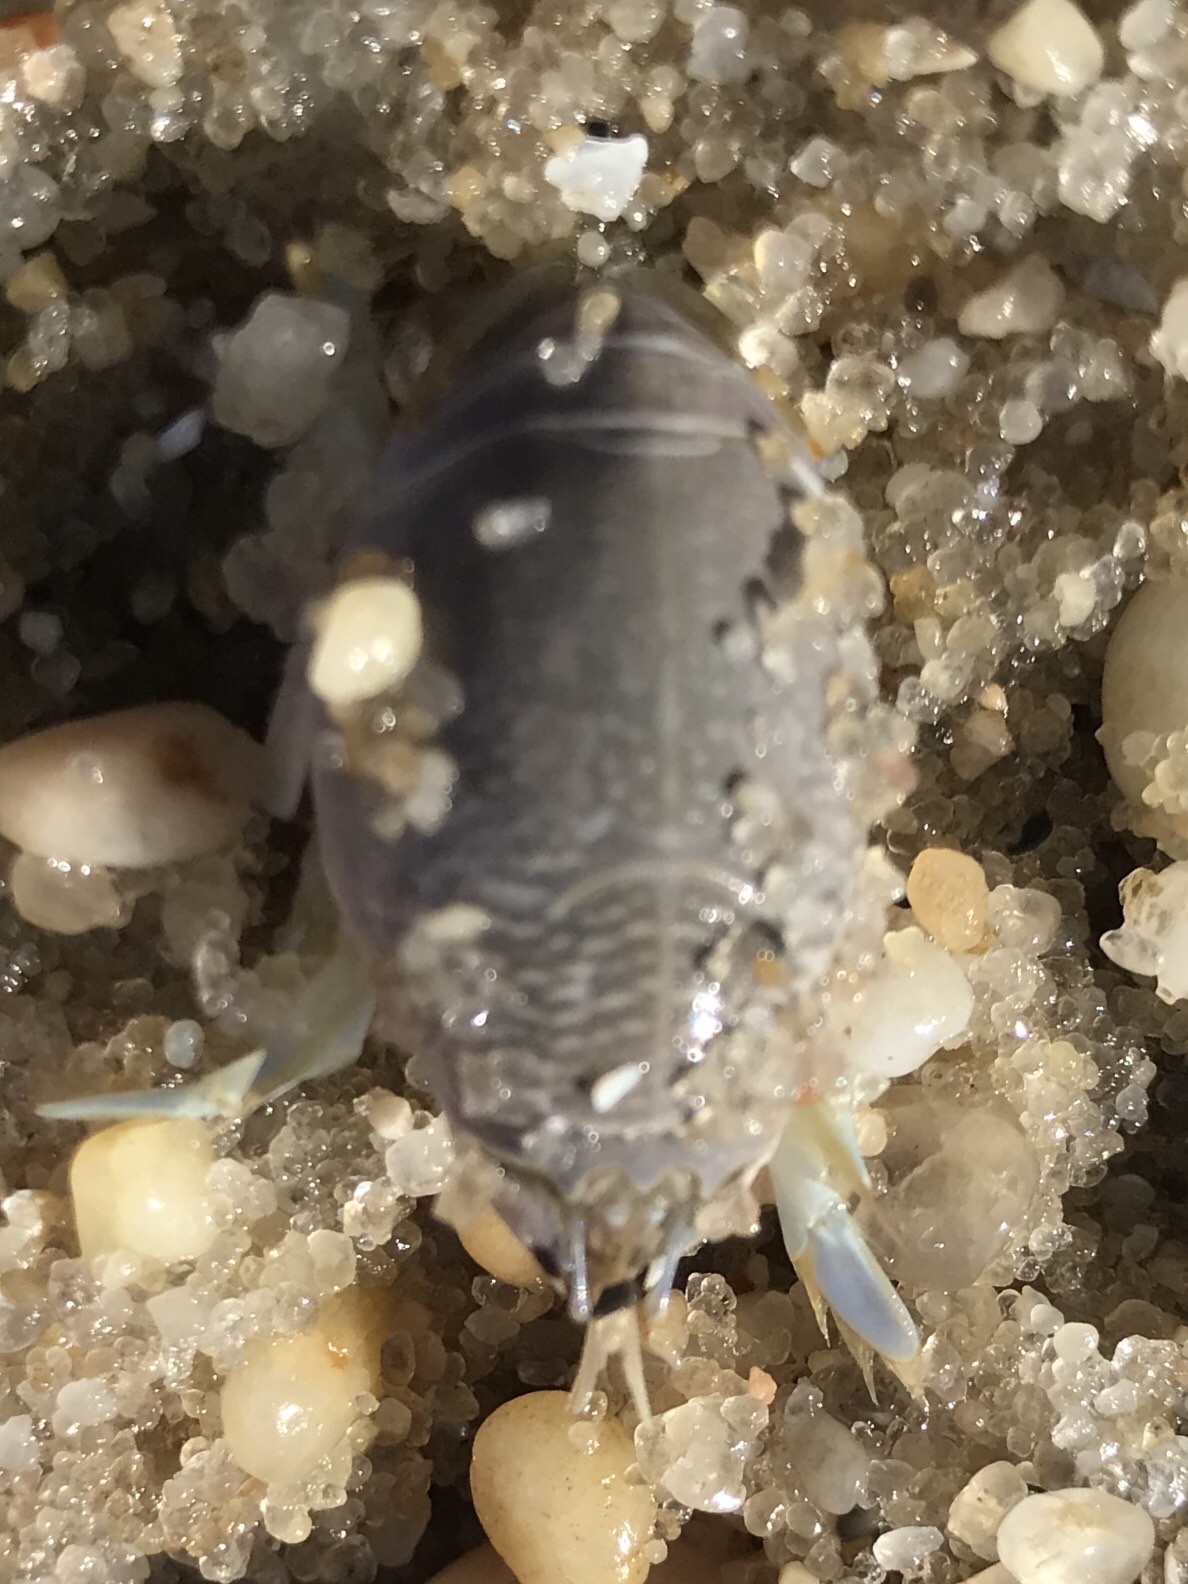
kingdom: Animalia
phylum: Arthropoda
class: Malacostraca
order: Decapoda
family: Hippidae
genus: Emerita
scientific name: Emerita talpoida
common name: Atlantic sand crab
